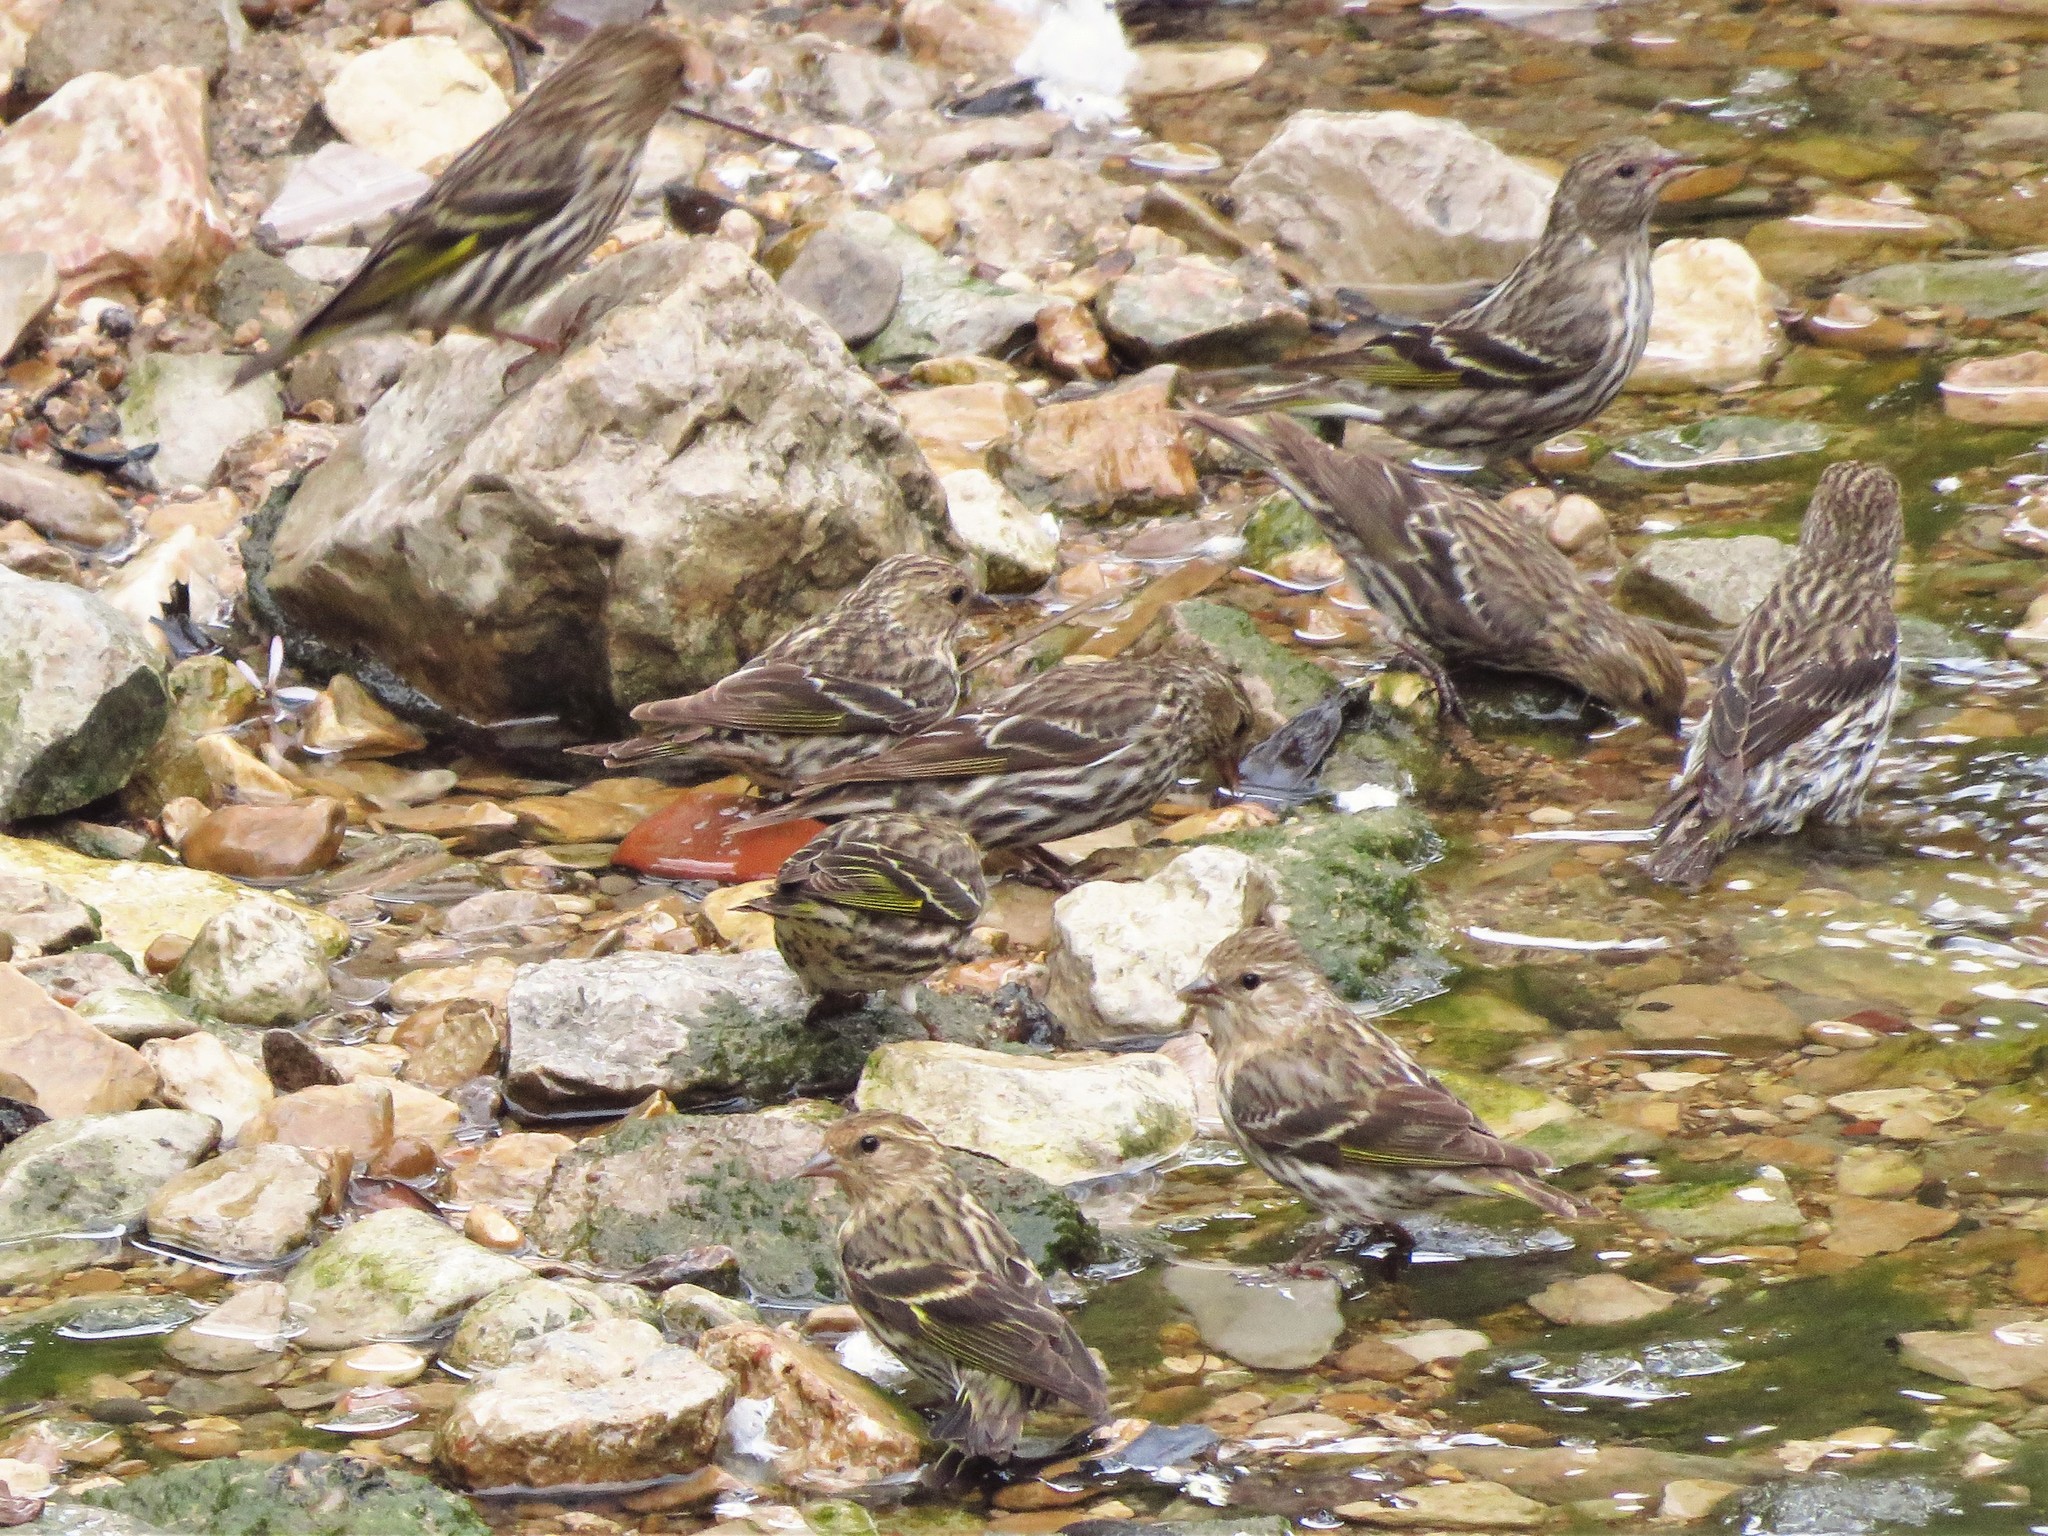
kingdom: Animalia
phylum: Chordata
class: Aves
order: Passeriformes
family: Fringillidae
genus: Spinus
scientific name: Spinus pinus
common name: Pine siskin
